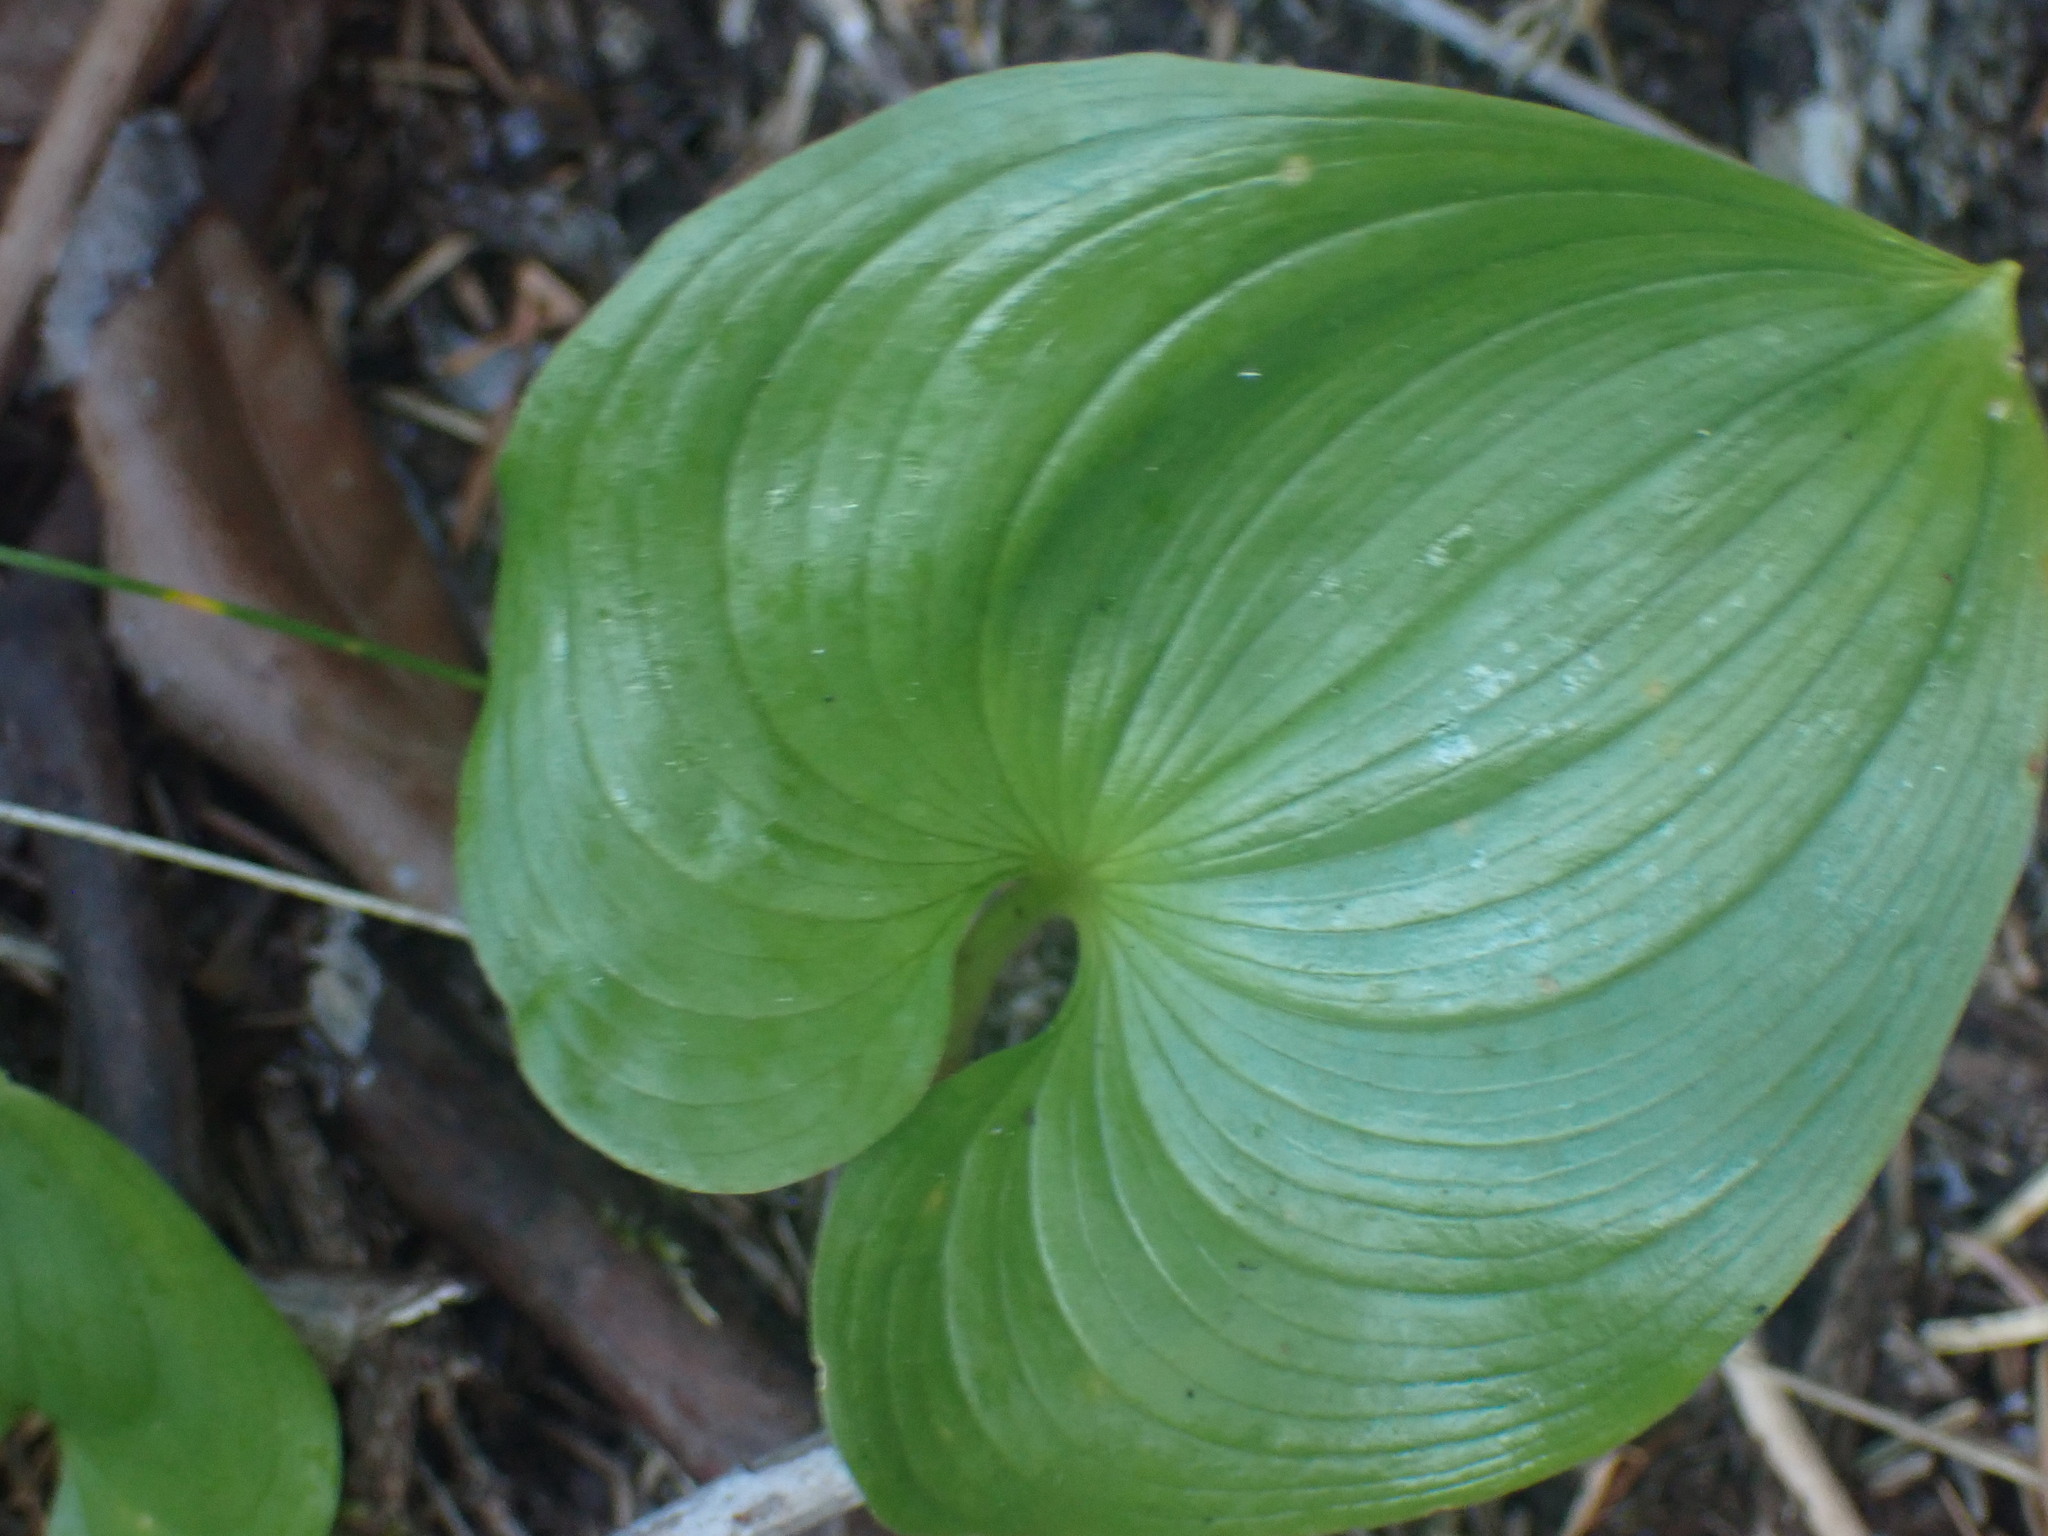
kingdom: Plantae
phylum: Tracheophyta
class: Liliopsida
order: Asparagales
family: Asparagaceae
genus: Maianthemum
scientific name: Maianthemum dilatatum
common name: False lily-of-the-valley
